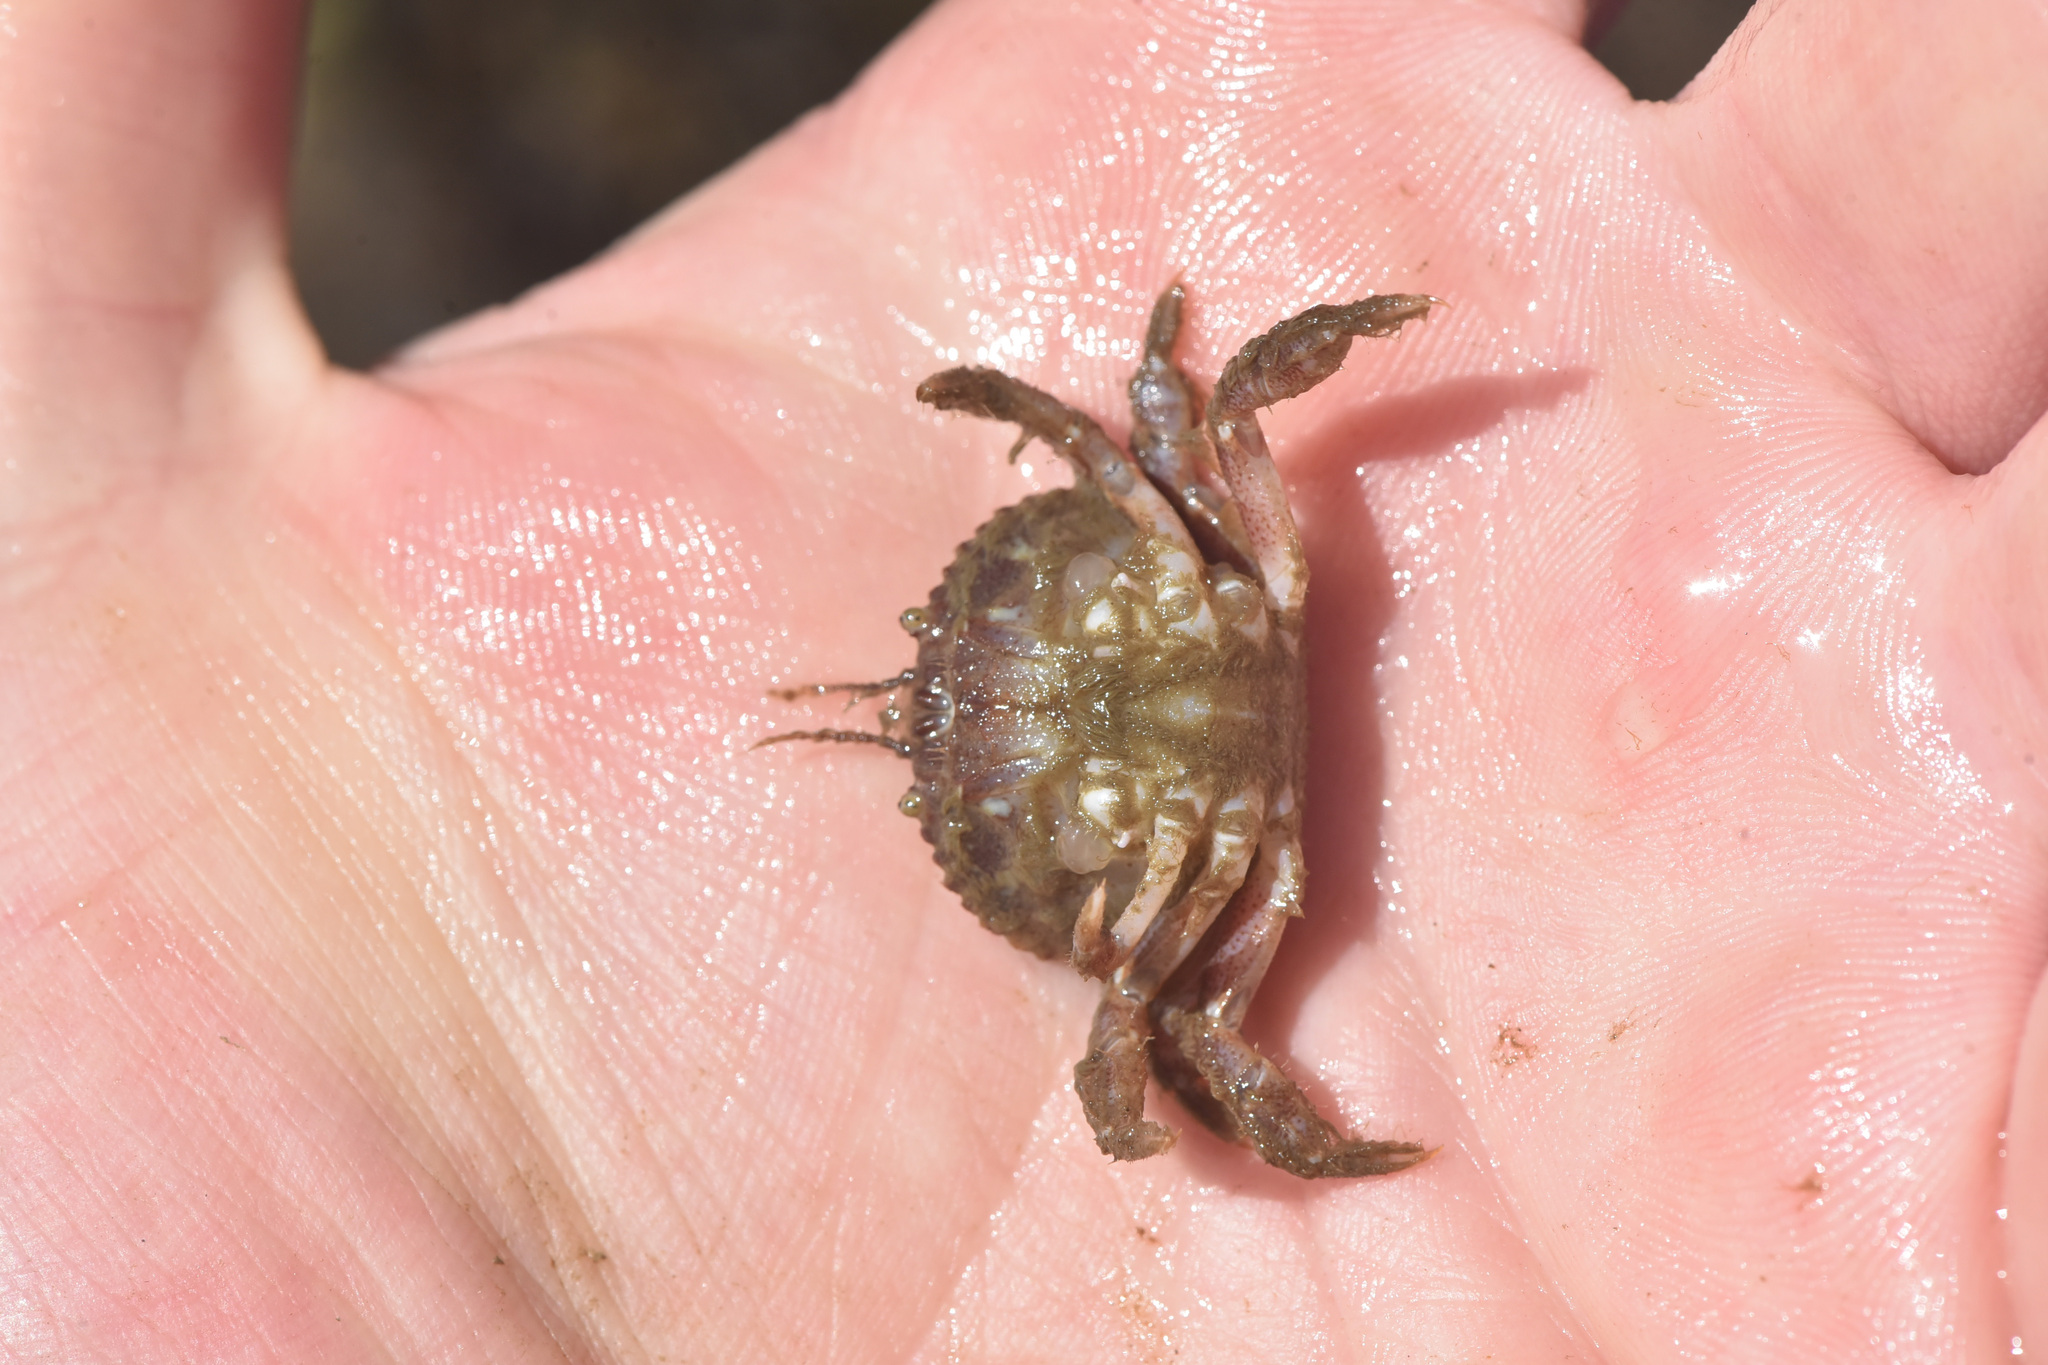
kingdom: Animalia
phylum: Arthropoda
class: Malacostraca
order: Decapoda
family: Cancridae
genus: Glebocarcinus
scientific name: Glebocarcinus oregonensis
